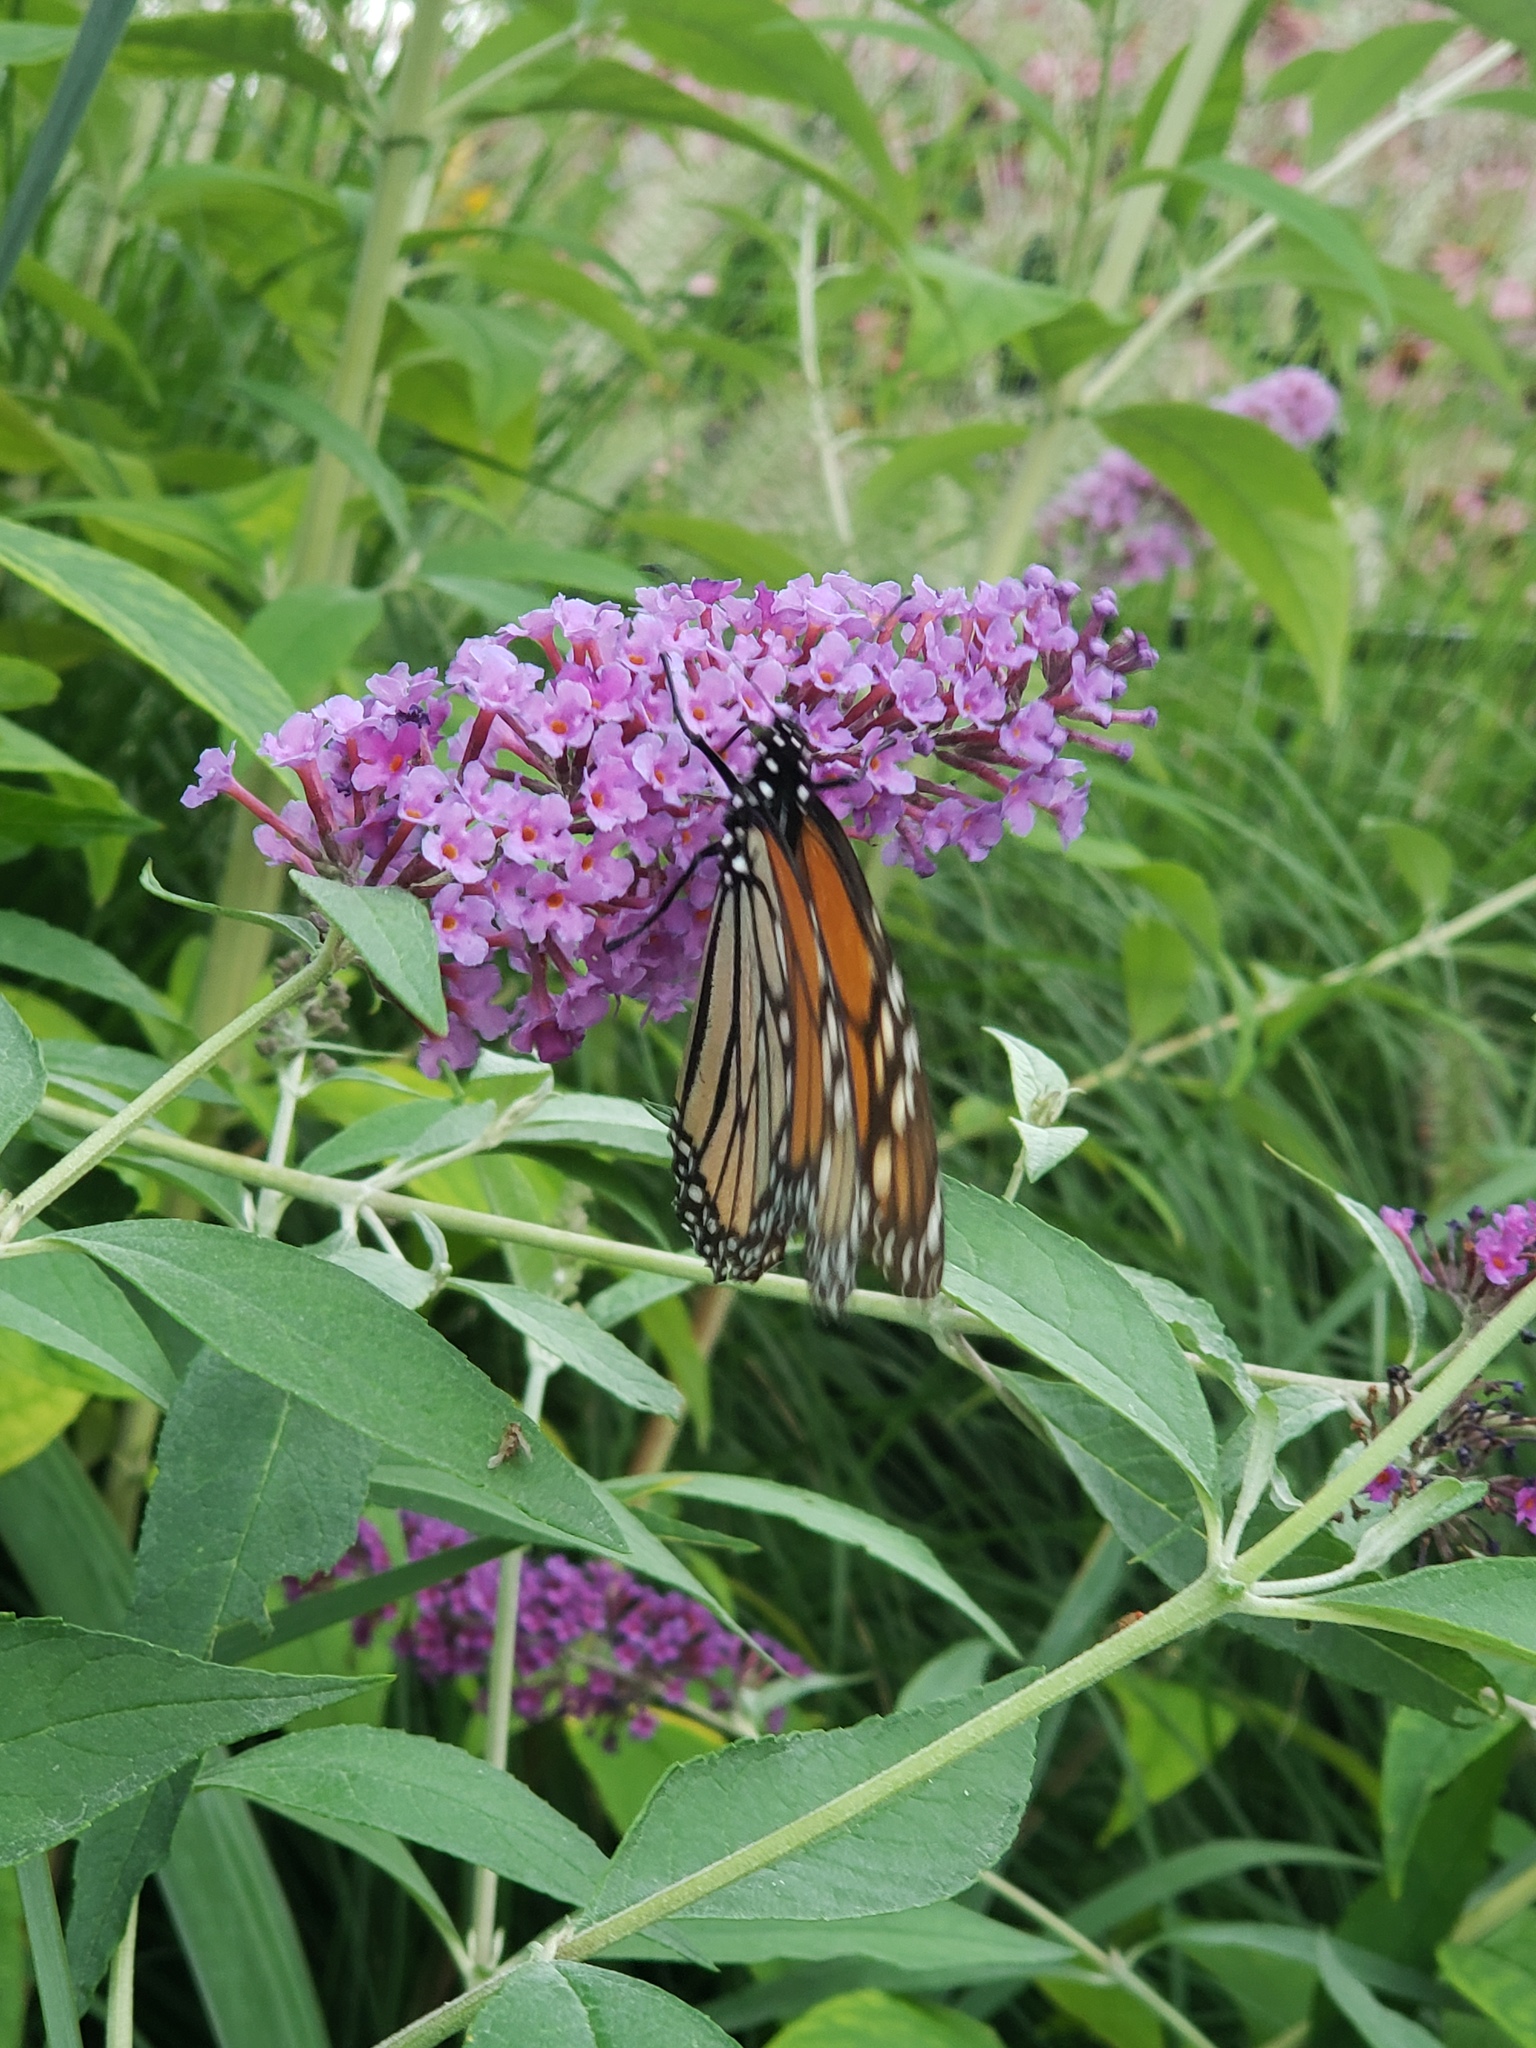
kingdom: Animalia
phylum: Arthropoda
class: Insecta
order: Lepidoptera
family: Nymphalidae
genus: Danaus
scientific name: Danaus plexippus
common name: Monarch
